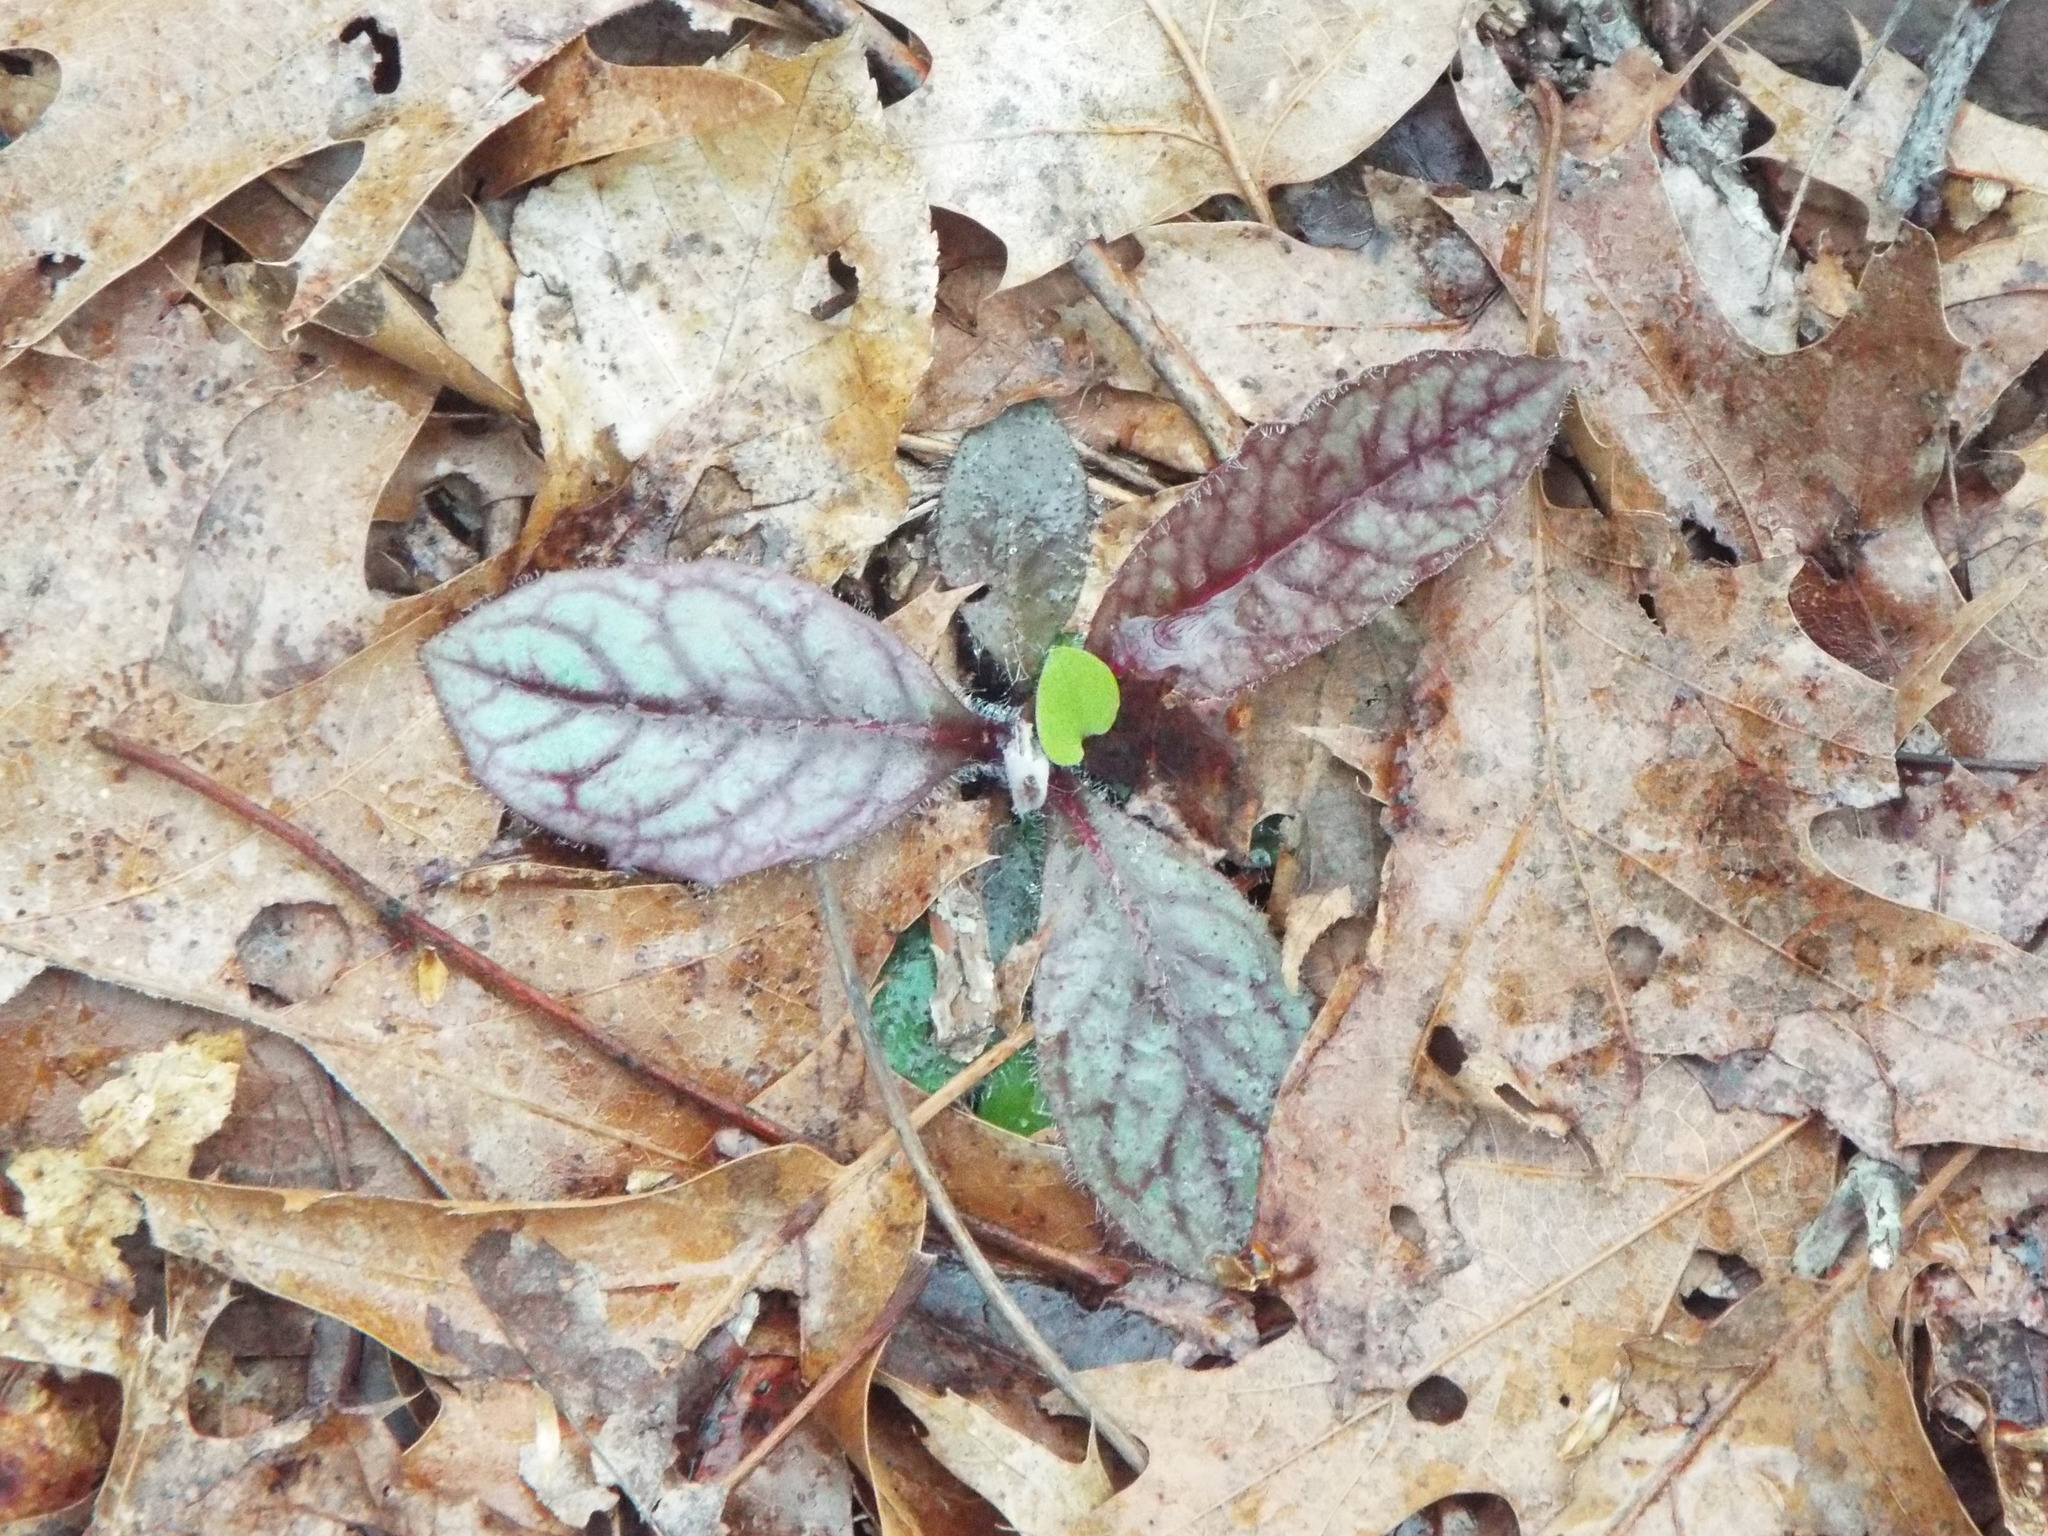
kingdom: Plantae
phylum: Tracheophyta
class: Magnoliopsida
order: Asterales
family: Asteraceae
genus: Hieracium
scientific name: Hieracium venosum
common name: Rattlesnake hawkweed
